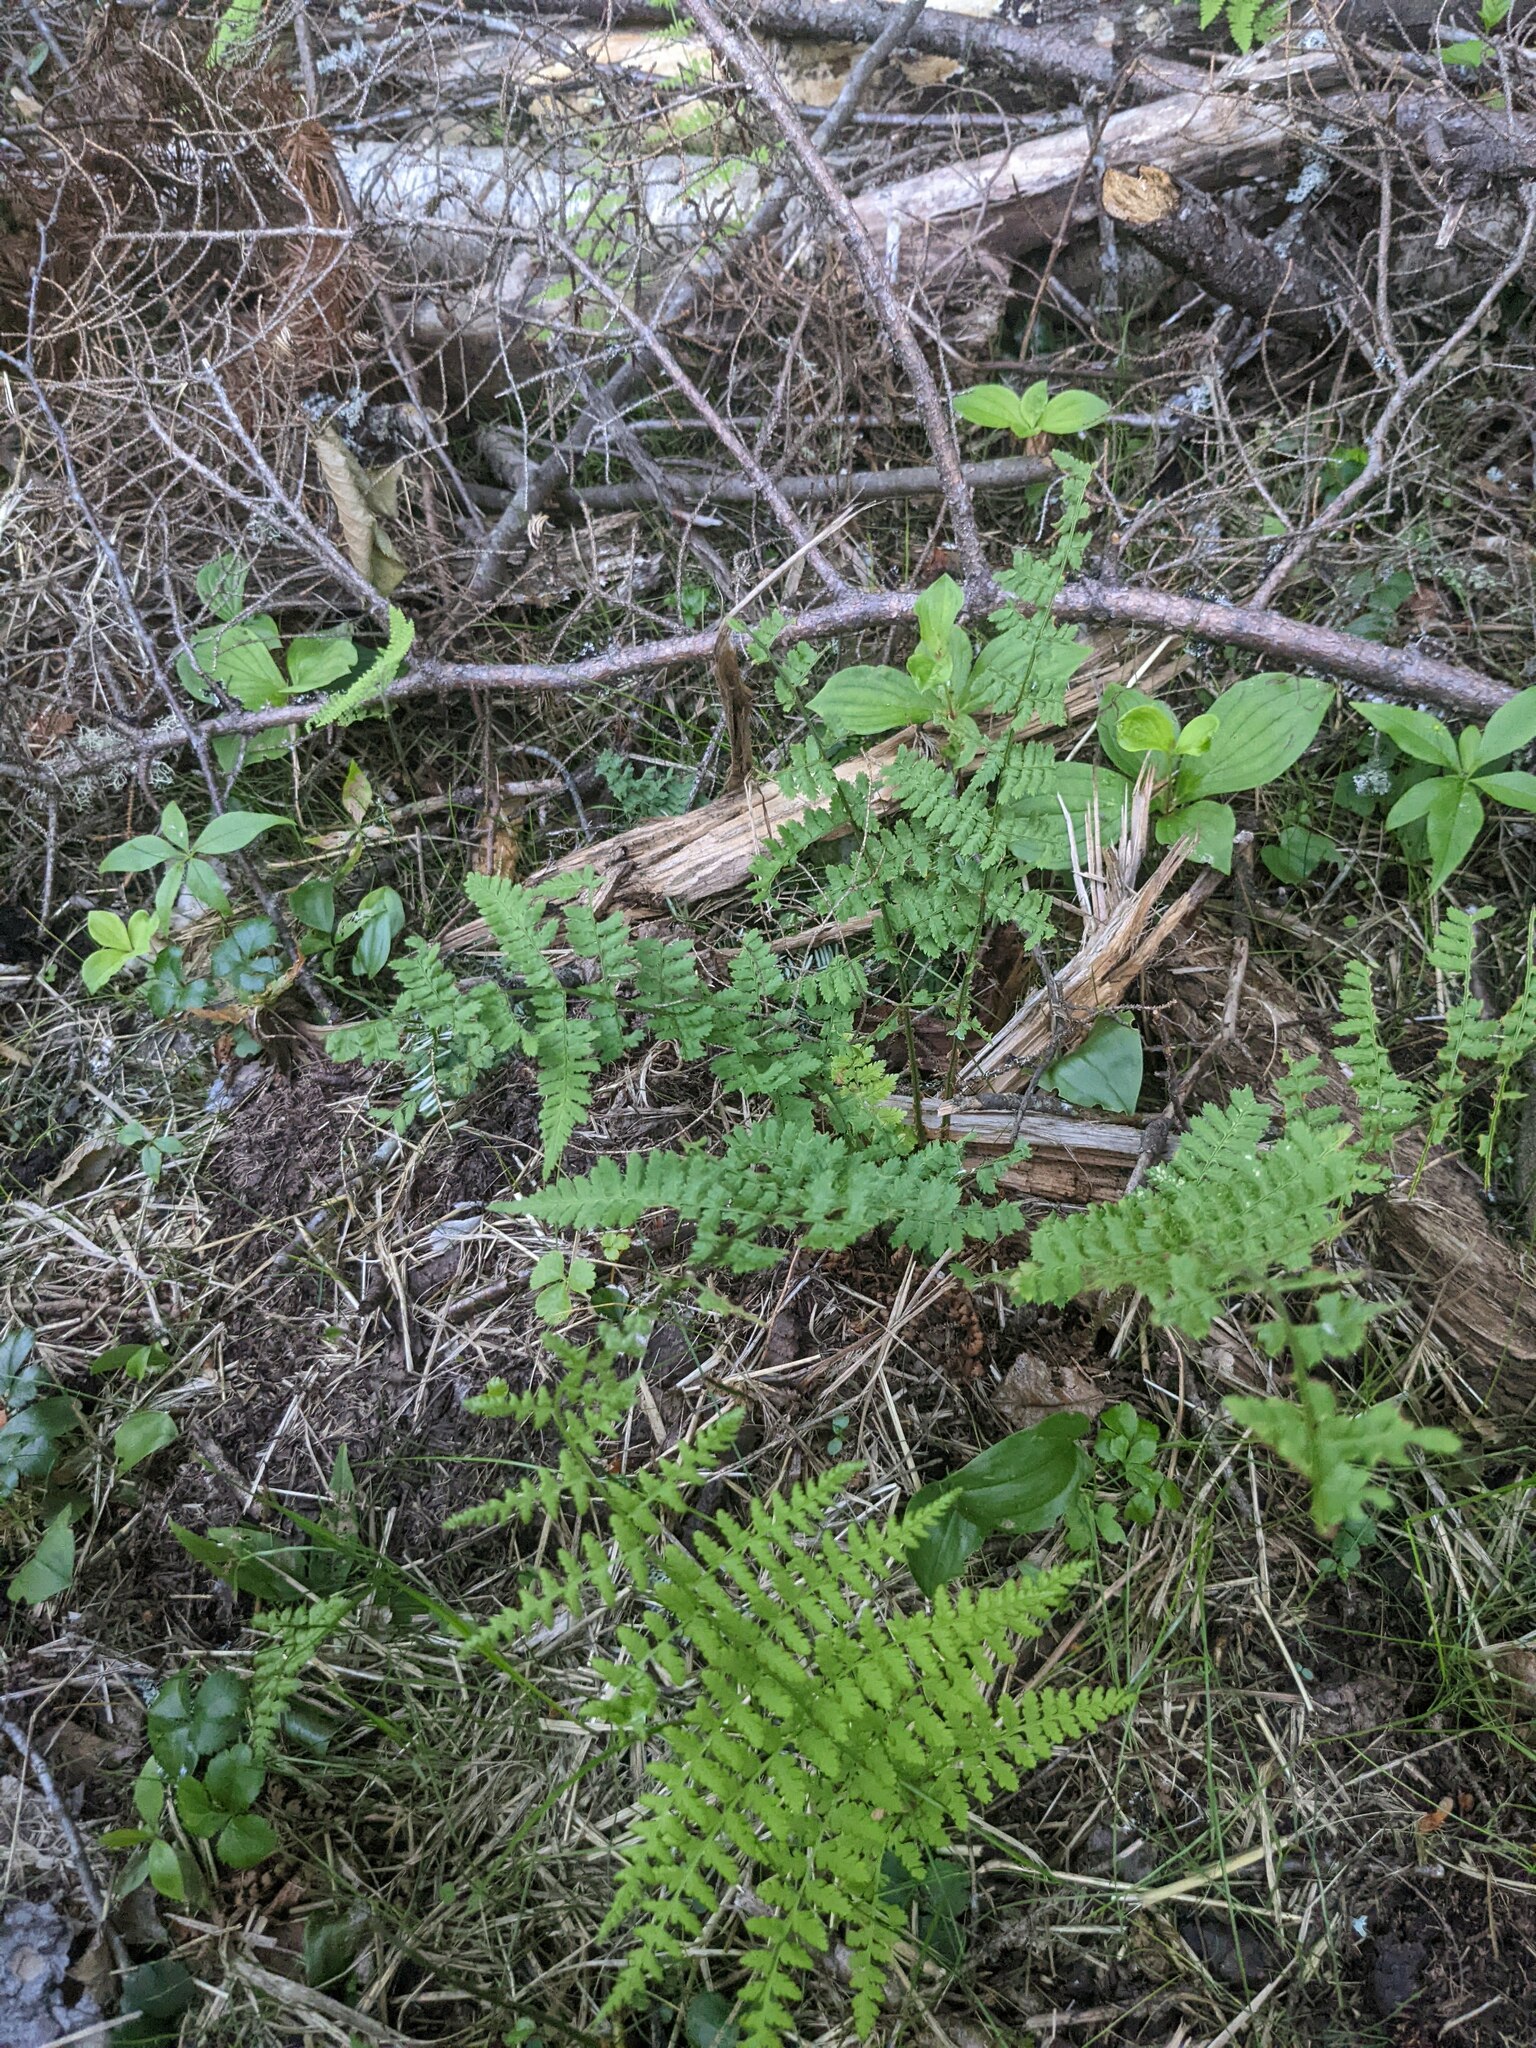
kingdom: Plantae
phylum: Tracheophyta
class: Polypodiopsida
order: Polypodiales
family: Dryopteridaceae
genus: Dryopteris
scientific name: Dryopteris intermedia
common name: Evergreen wood fern
